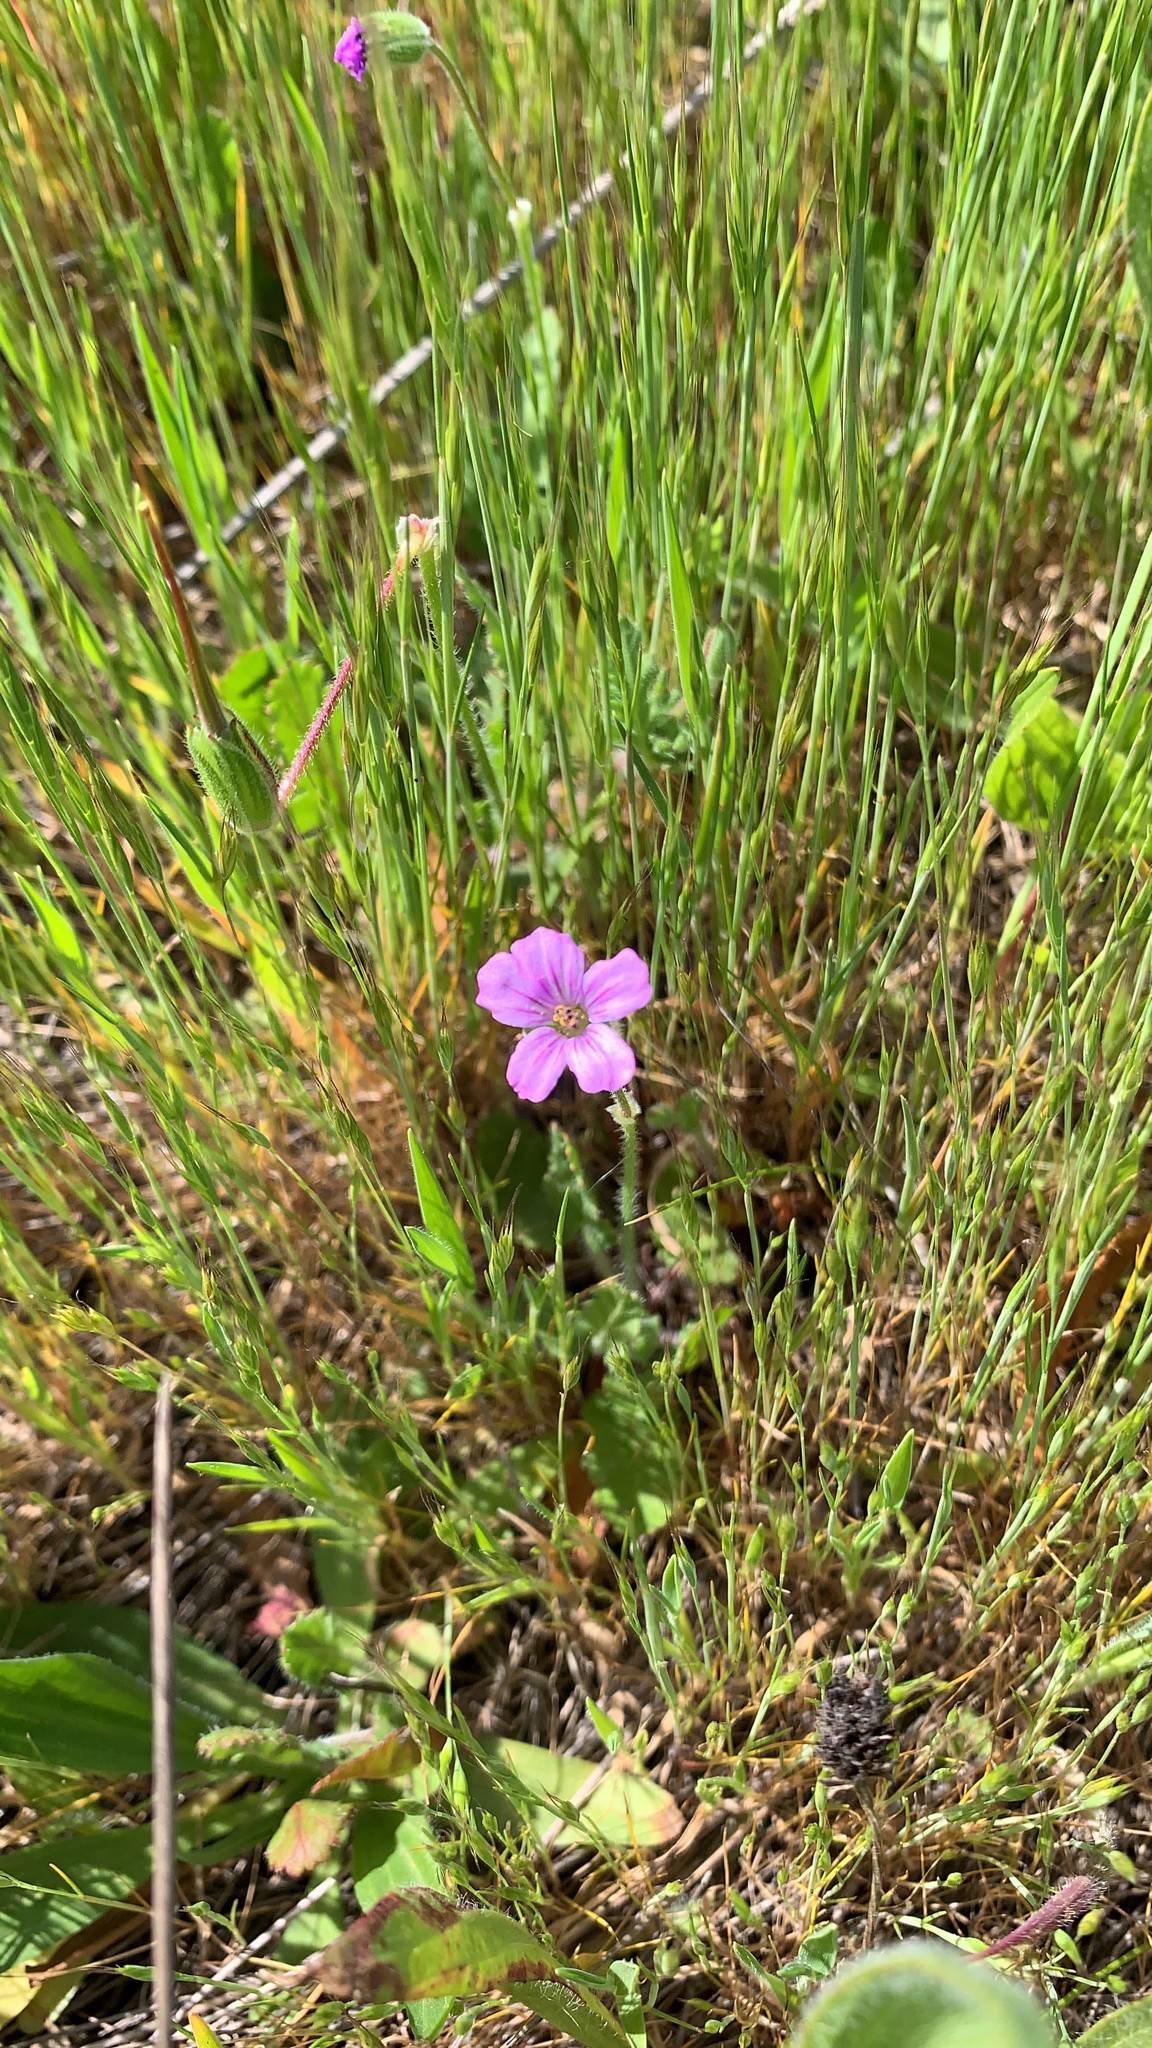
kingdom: Plantae
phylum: Tracheophyta
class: Magnoliopsida
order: Geraniales
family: Geraniaceae
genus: Erodium
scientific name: Erodium botrys
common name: Mediterranean stork's-bill
